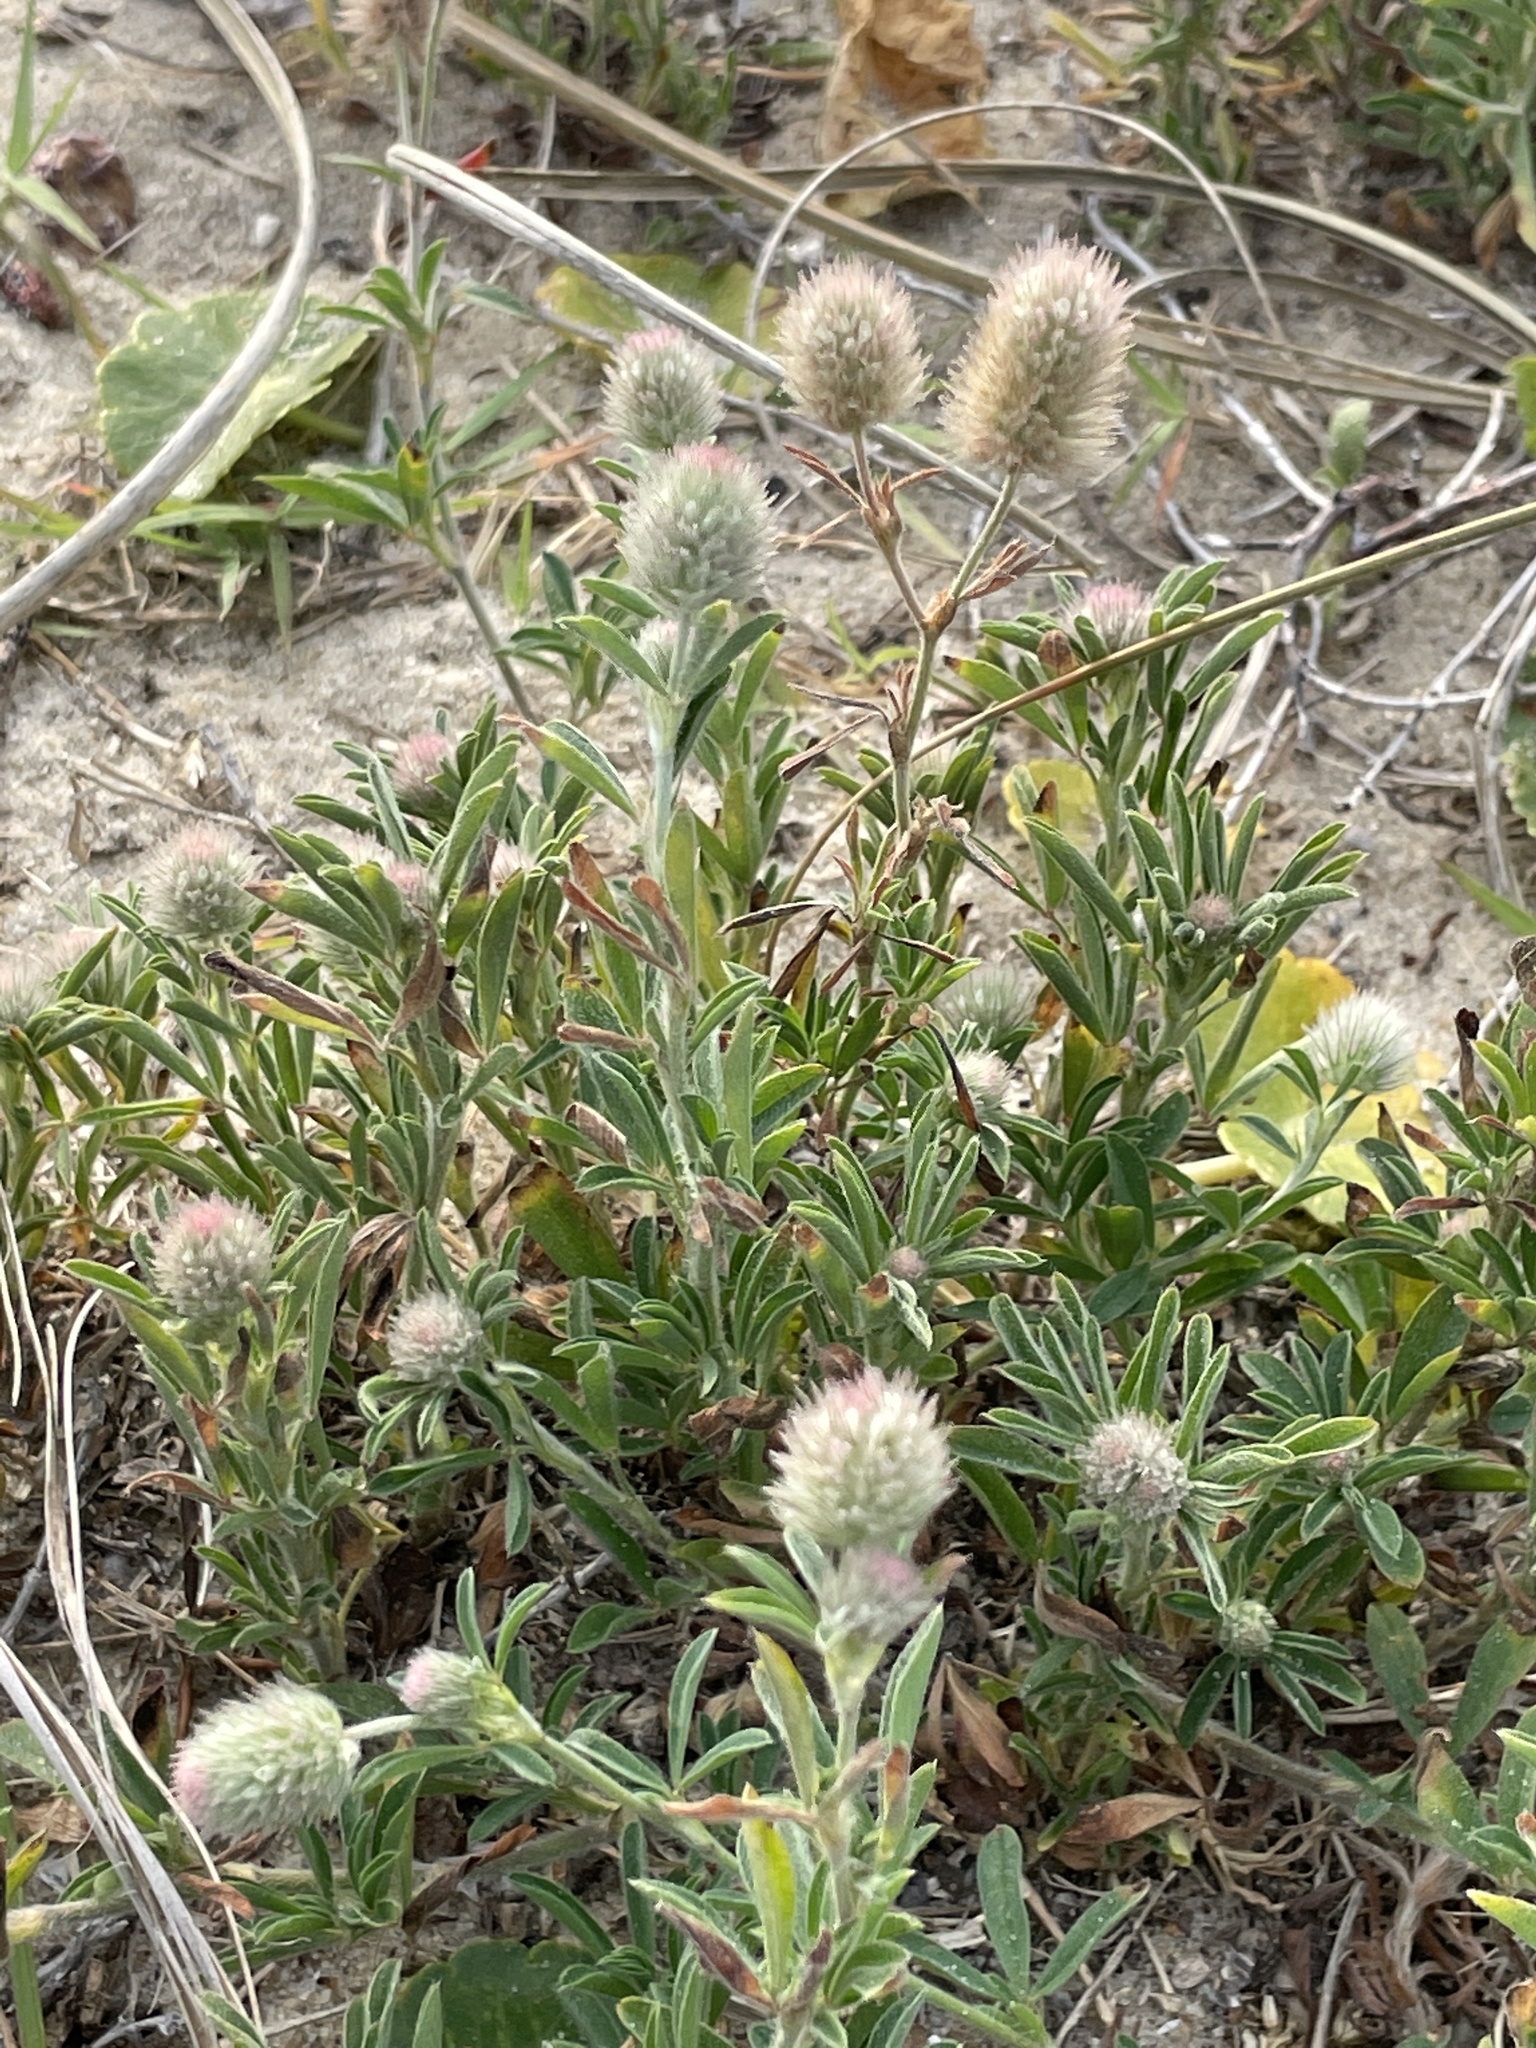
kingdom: Plantae
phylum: Tracheophyta
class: Magnoliopsida
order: Fabales
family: Fabaceae
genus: Trifolium
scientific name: Trifolium arvense
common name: Hare's-foot clover
